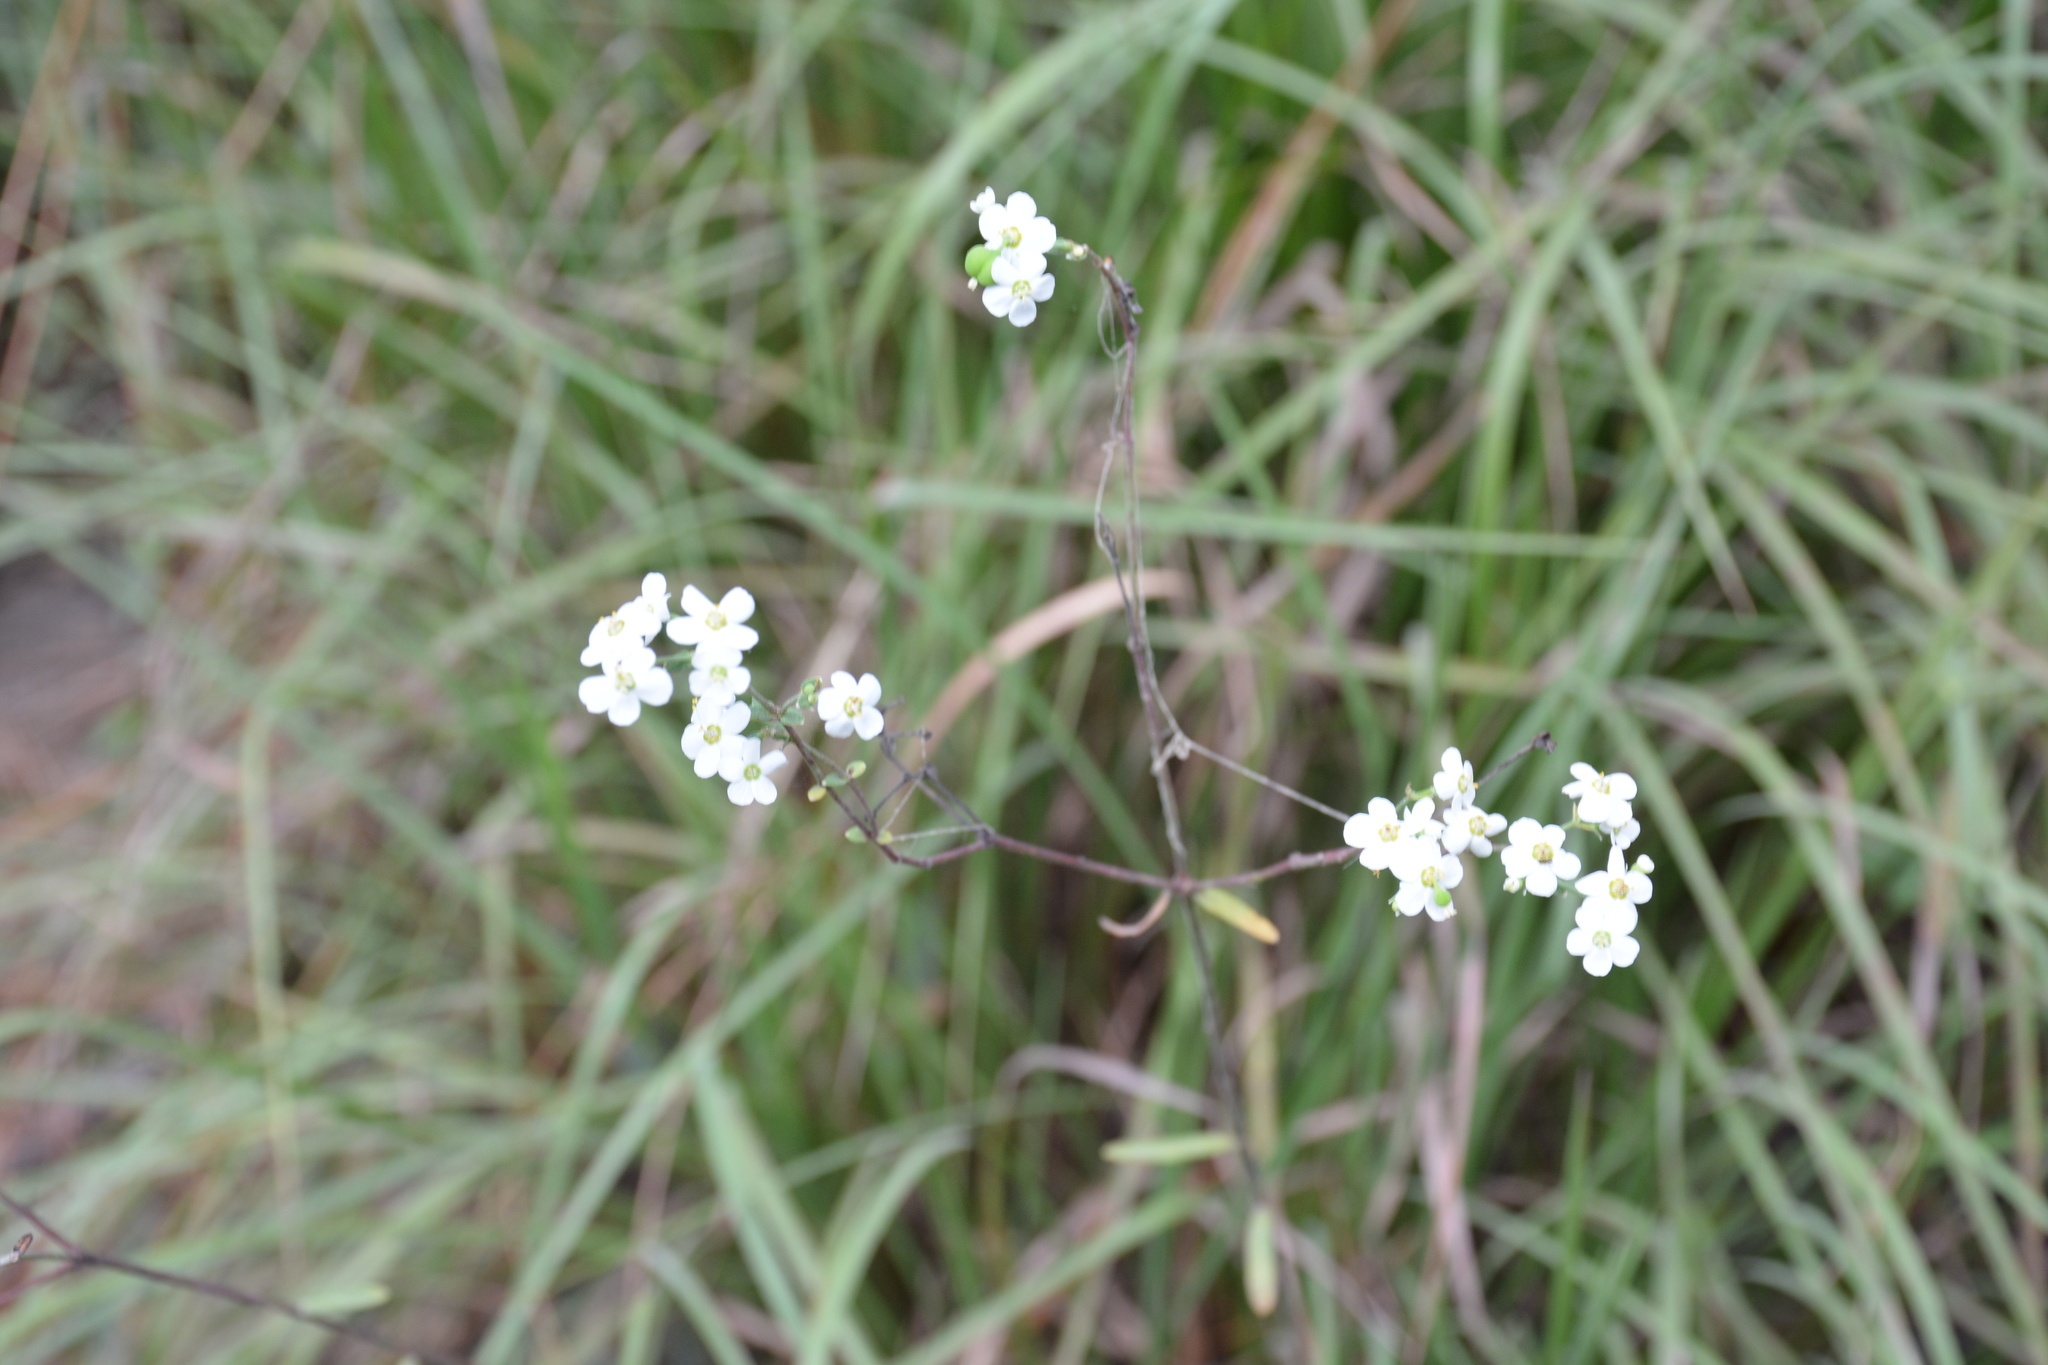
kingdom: Plantae
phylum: Tracheophyta
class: Magnoliopsida
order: Malpighiales
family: Euphorbiaceae
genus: Euphorbia
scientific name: Euphorbia corollata
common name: Flowering spurge
